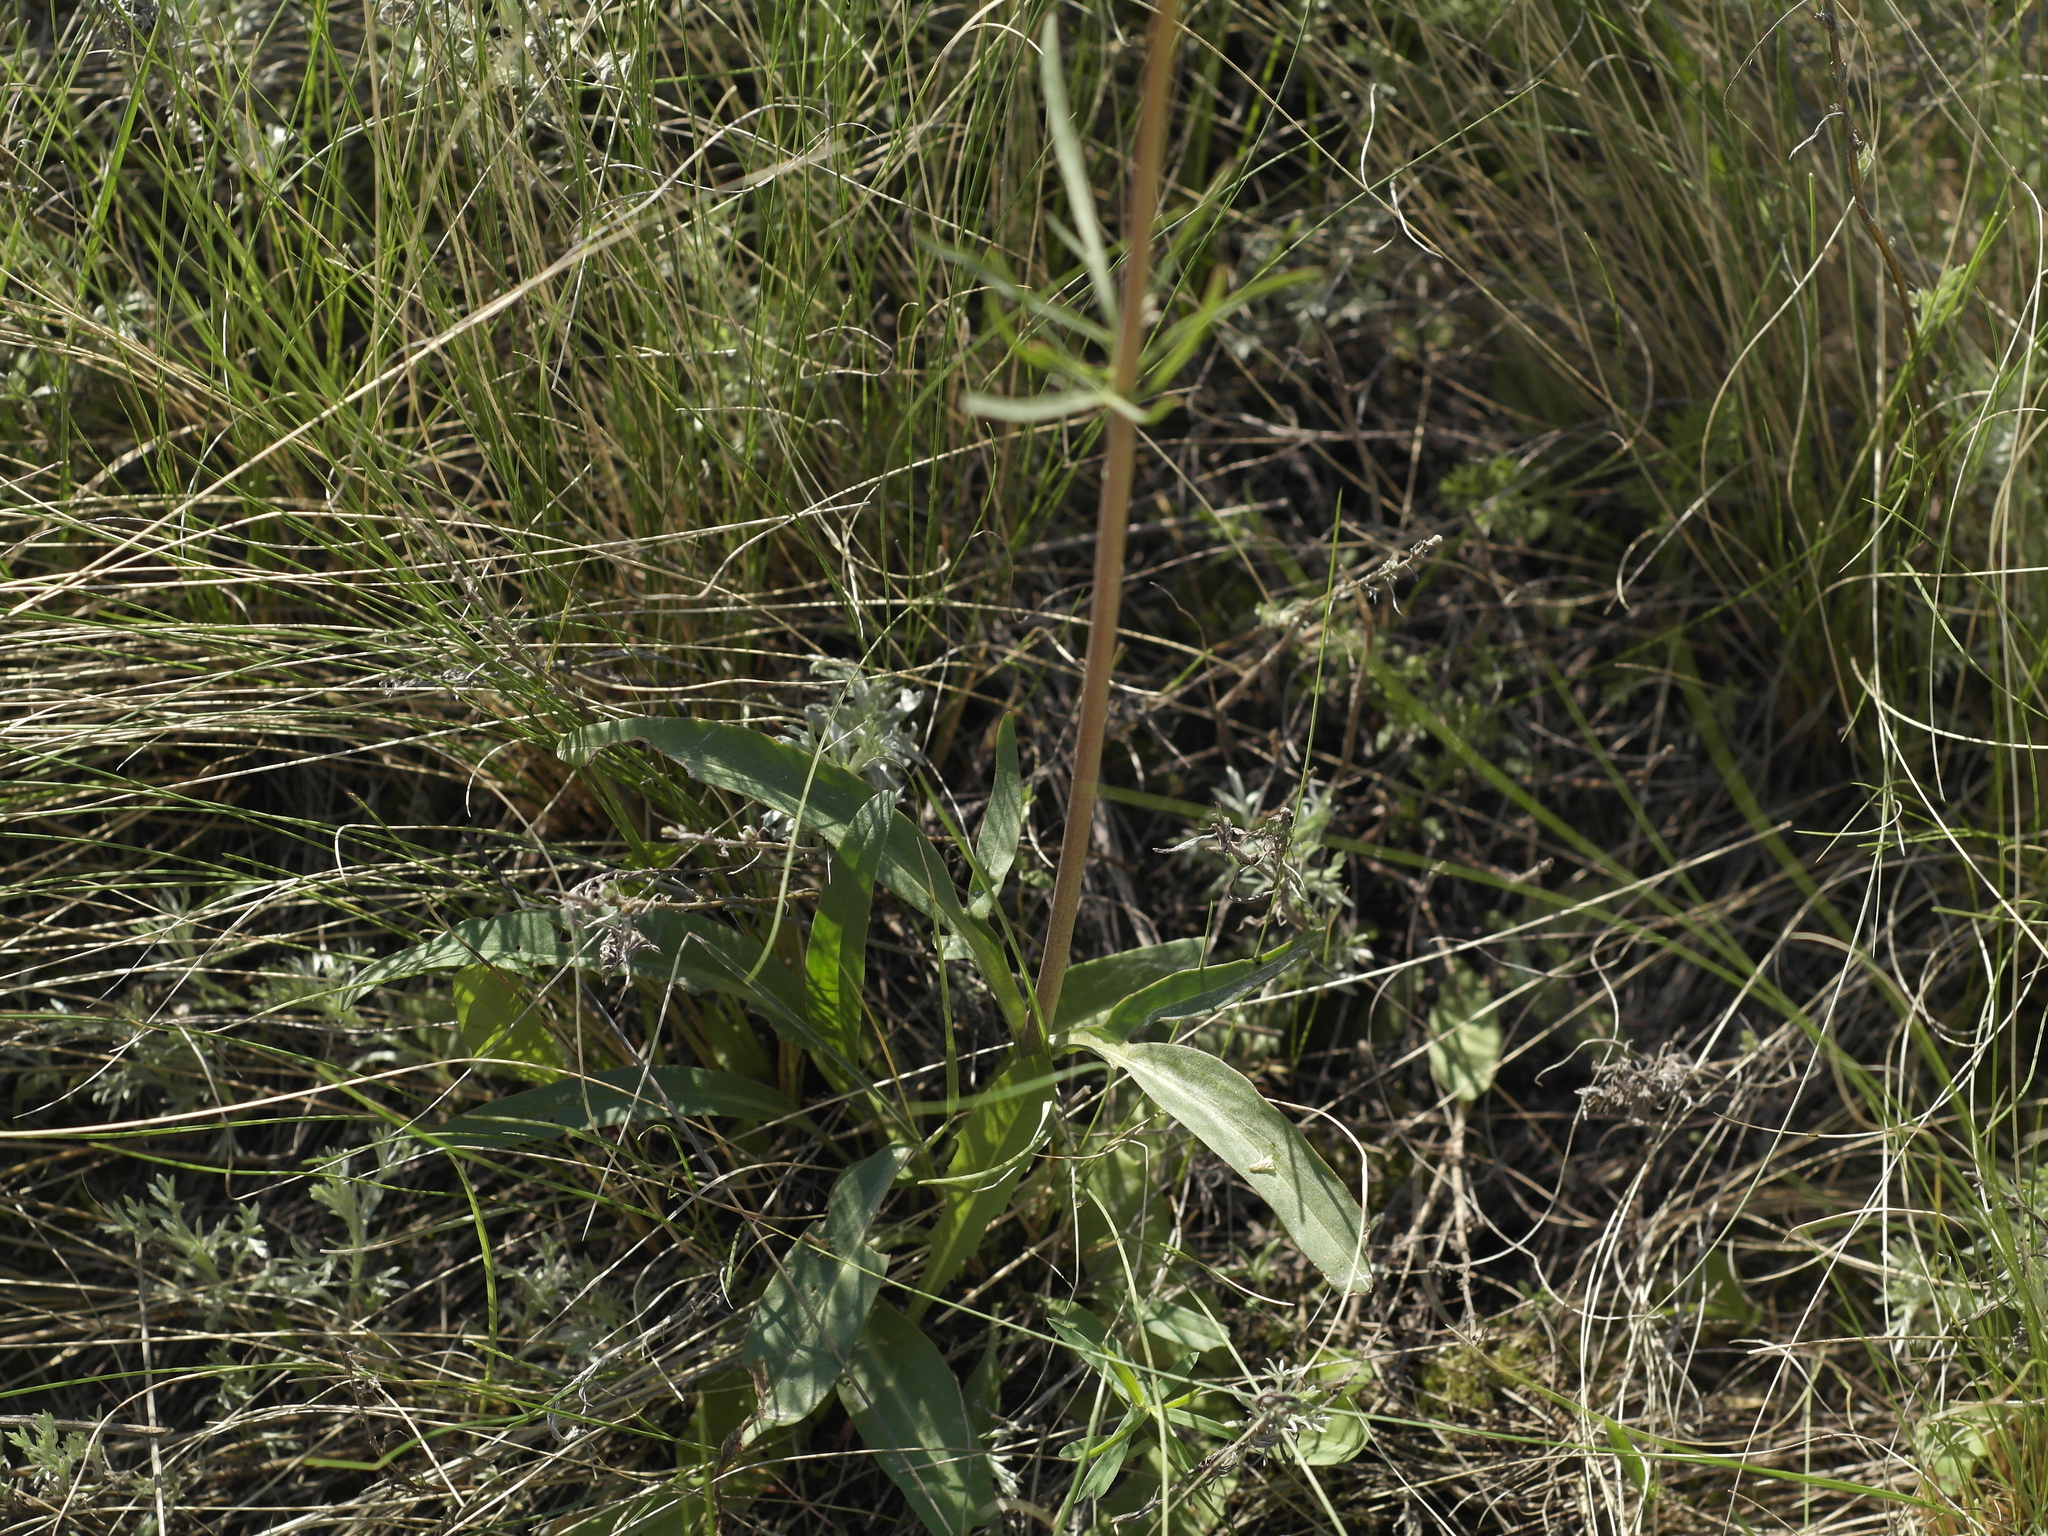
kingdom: Plantae
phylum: Tracheophyta
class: Magnoliopsida
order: Dipsacales
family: Caprifoliaceae
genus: Valeriana
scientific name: Valeriana tuberosa
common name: Tuberous valerian
